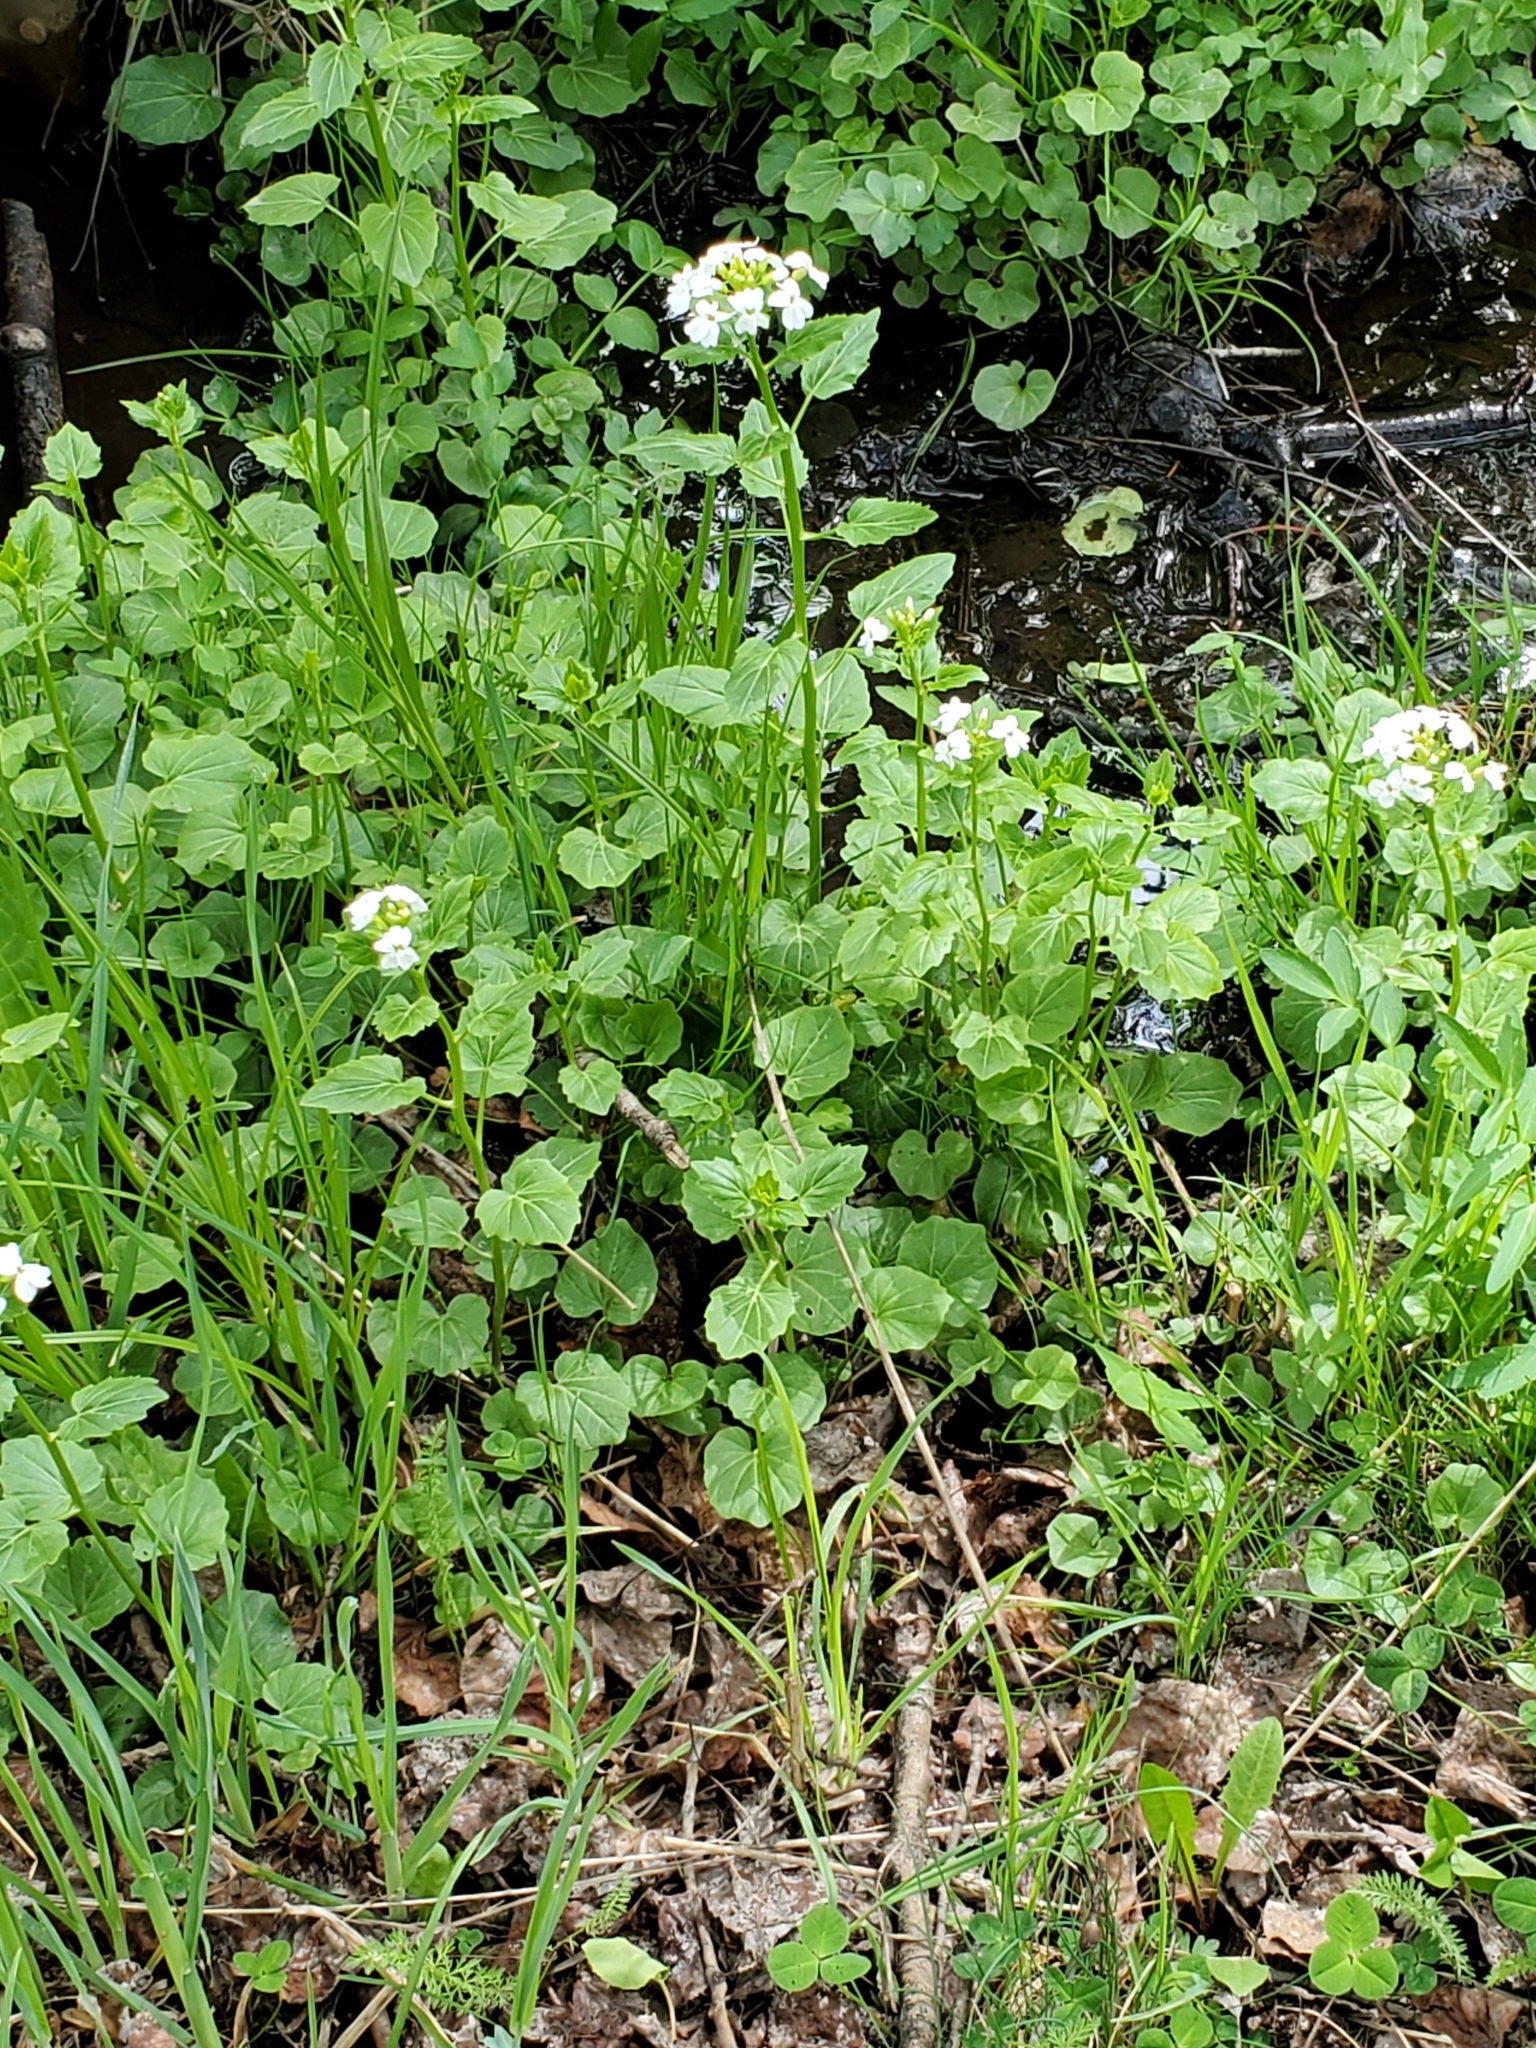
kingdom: Plantae
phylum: Tracheophyta
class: Magnoliopsida
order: Brassicales
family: Brassicaceae
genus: Cardamine
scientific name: Cardamine cordifolia
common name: Heart-leaf bittercress
